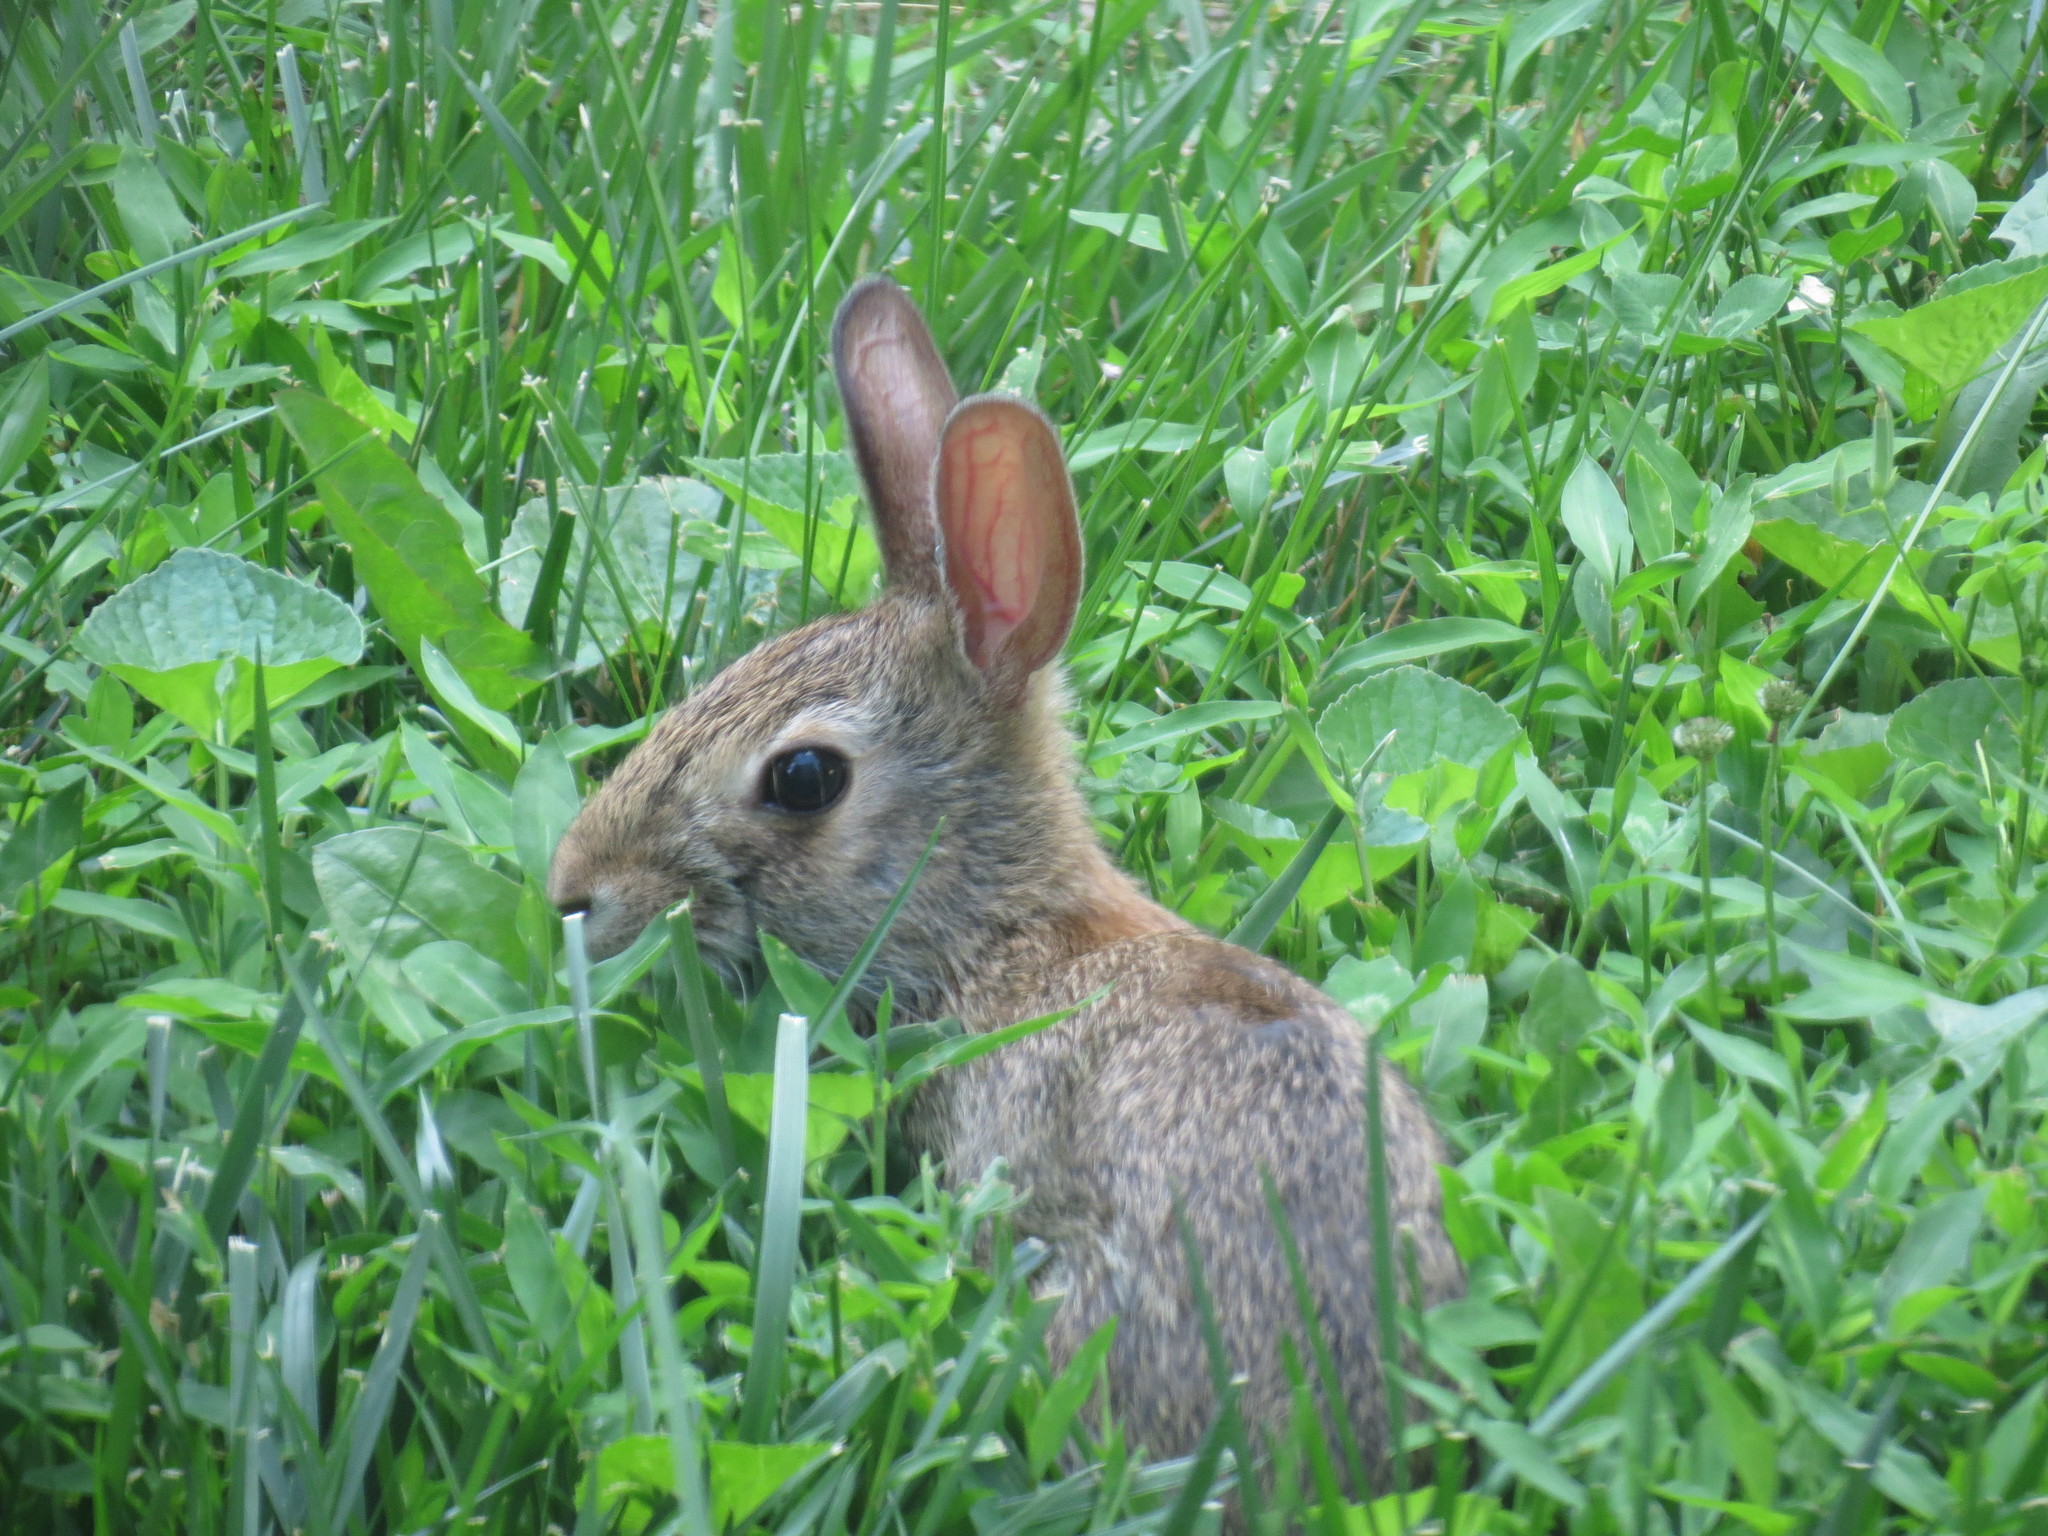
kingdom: Animalia
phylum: Chordata
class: Mammalia
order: Lagomorpha
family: Leporidae
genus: Sylvilagus
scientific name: Sylvilagus floridanus
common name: Eastern cottontail
